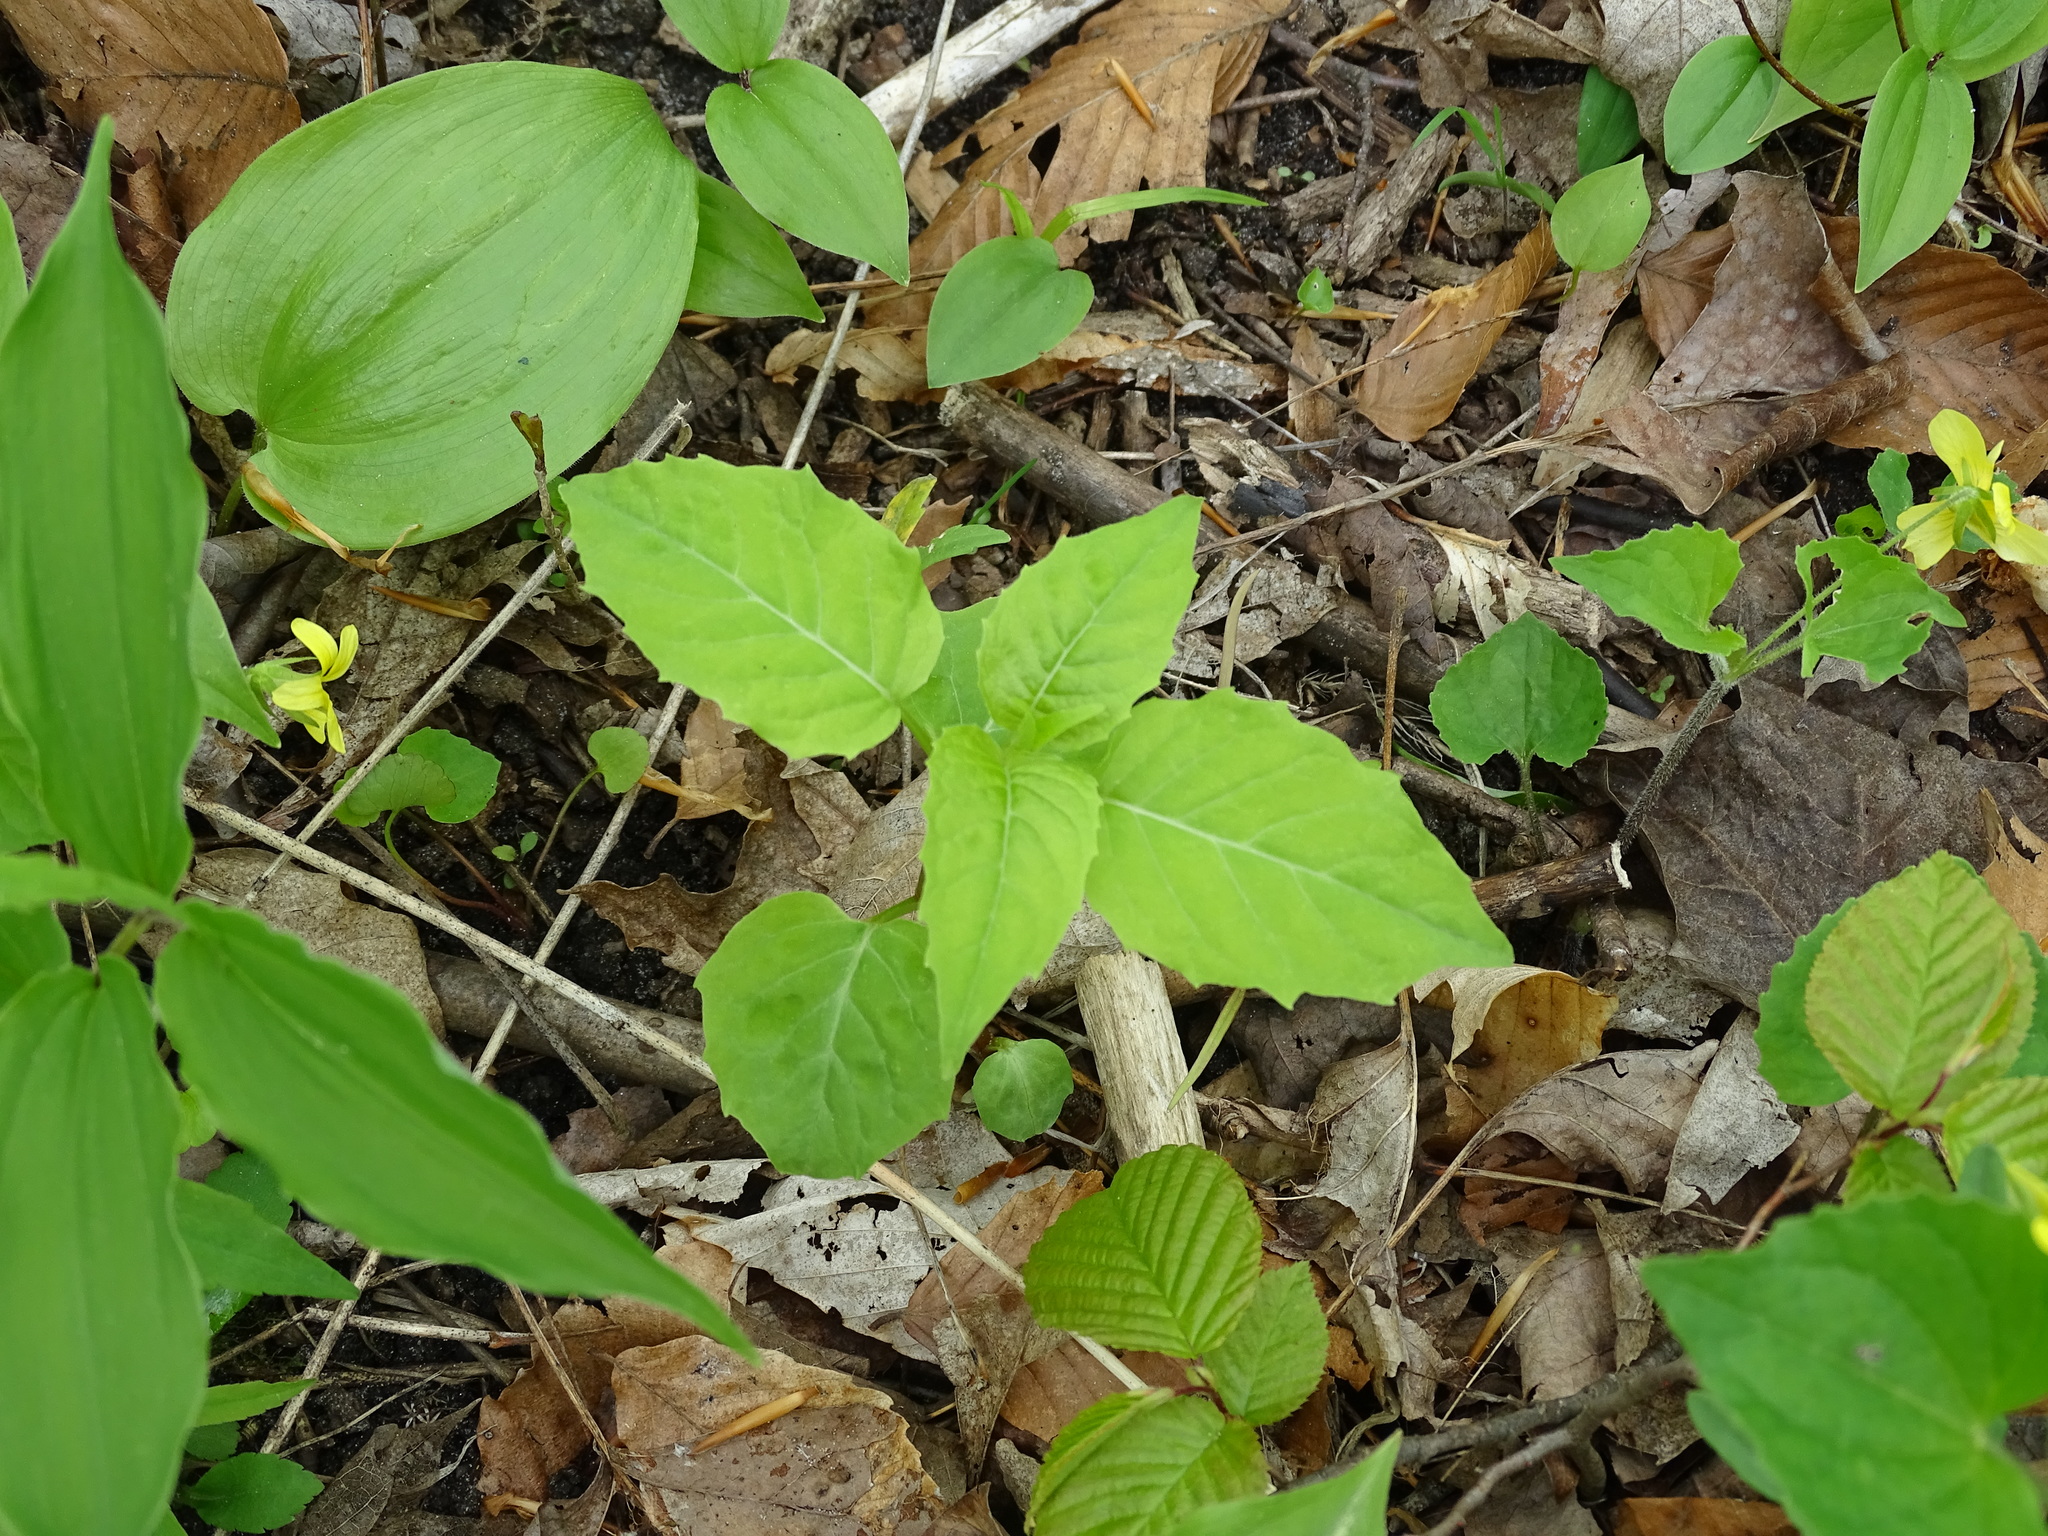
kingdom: Plantae
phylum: Tracheophyta
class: Magnoliopsida
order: Myrtales
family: Onagraceae
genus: Circaea
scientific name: Circaea canadensis
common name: Broad-leaved enchanter's nightshade
